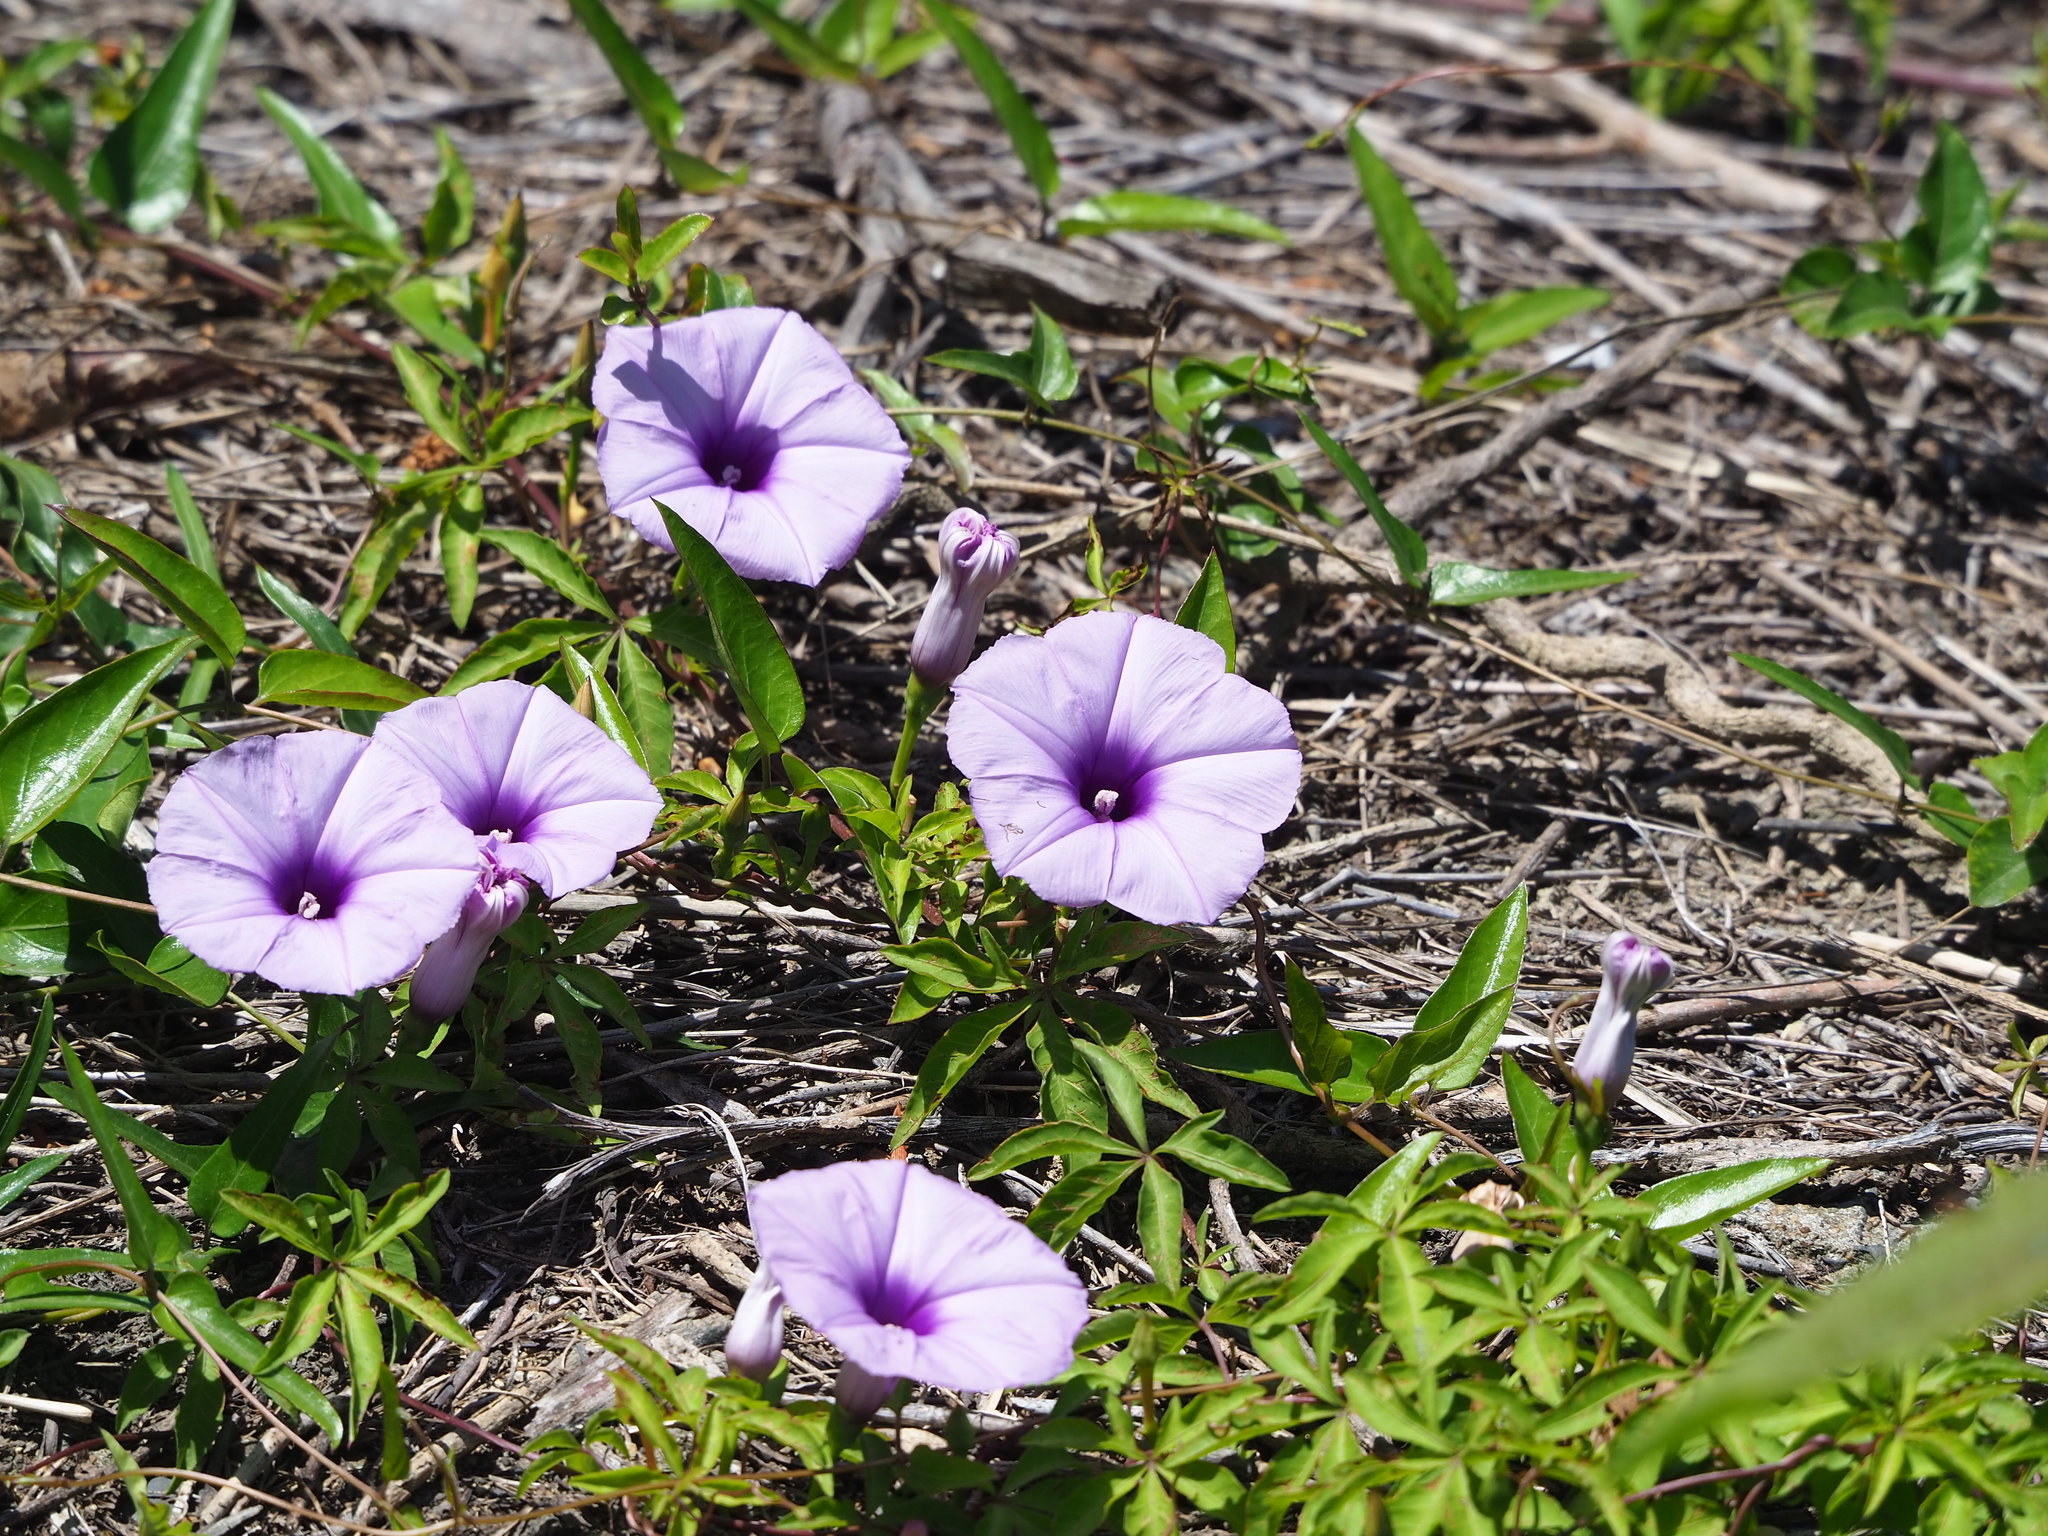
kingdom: Plantae
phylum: Tracheophyta
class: Magnoliopsida
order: Solanales
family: Convolvulaceae
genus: Ipomoea
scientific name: Ipomoea cairica
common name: Mile a minute vine
